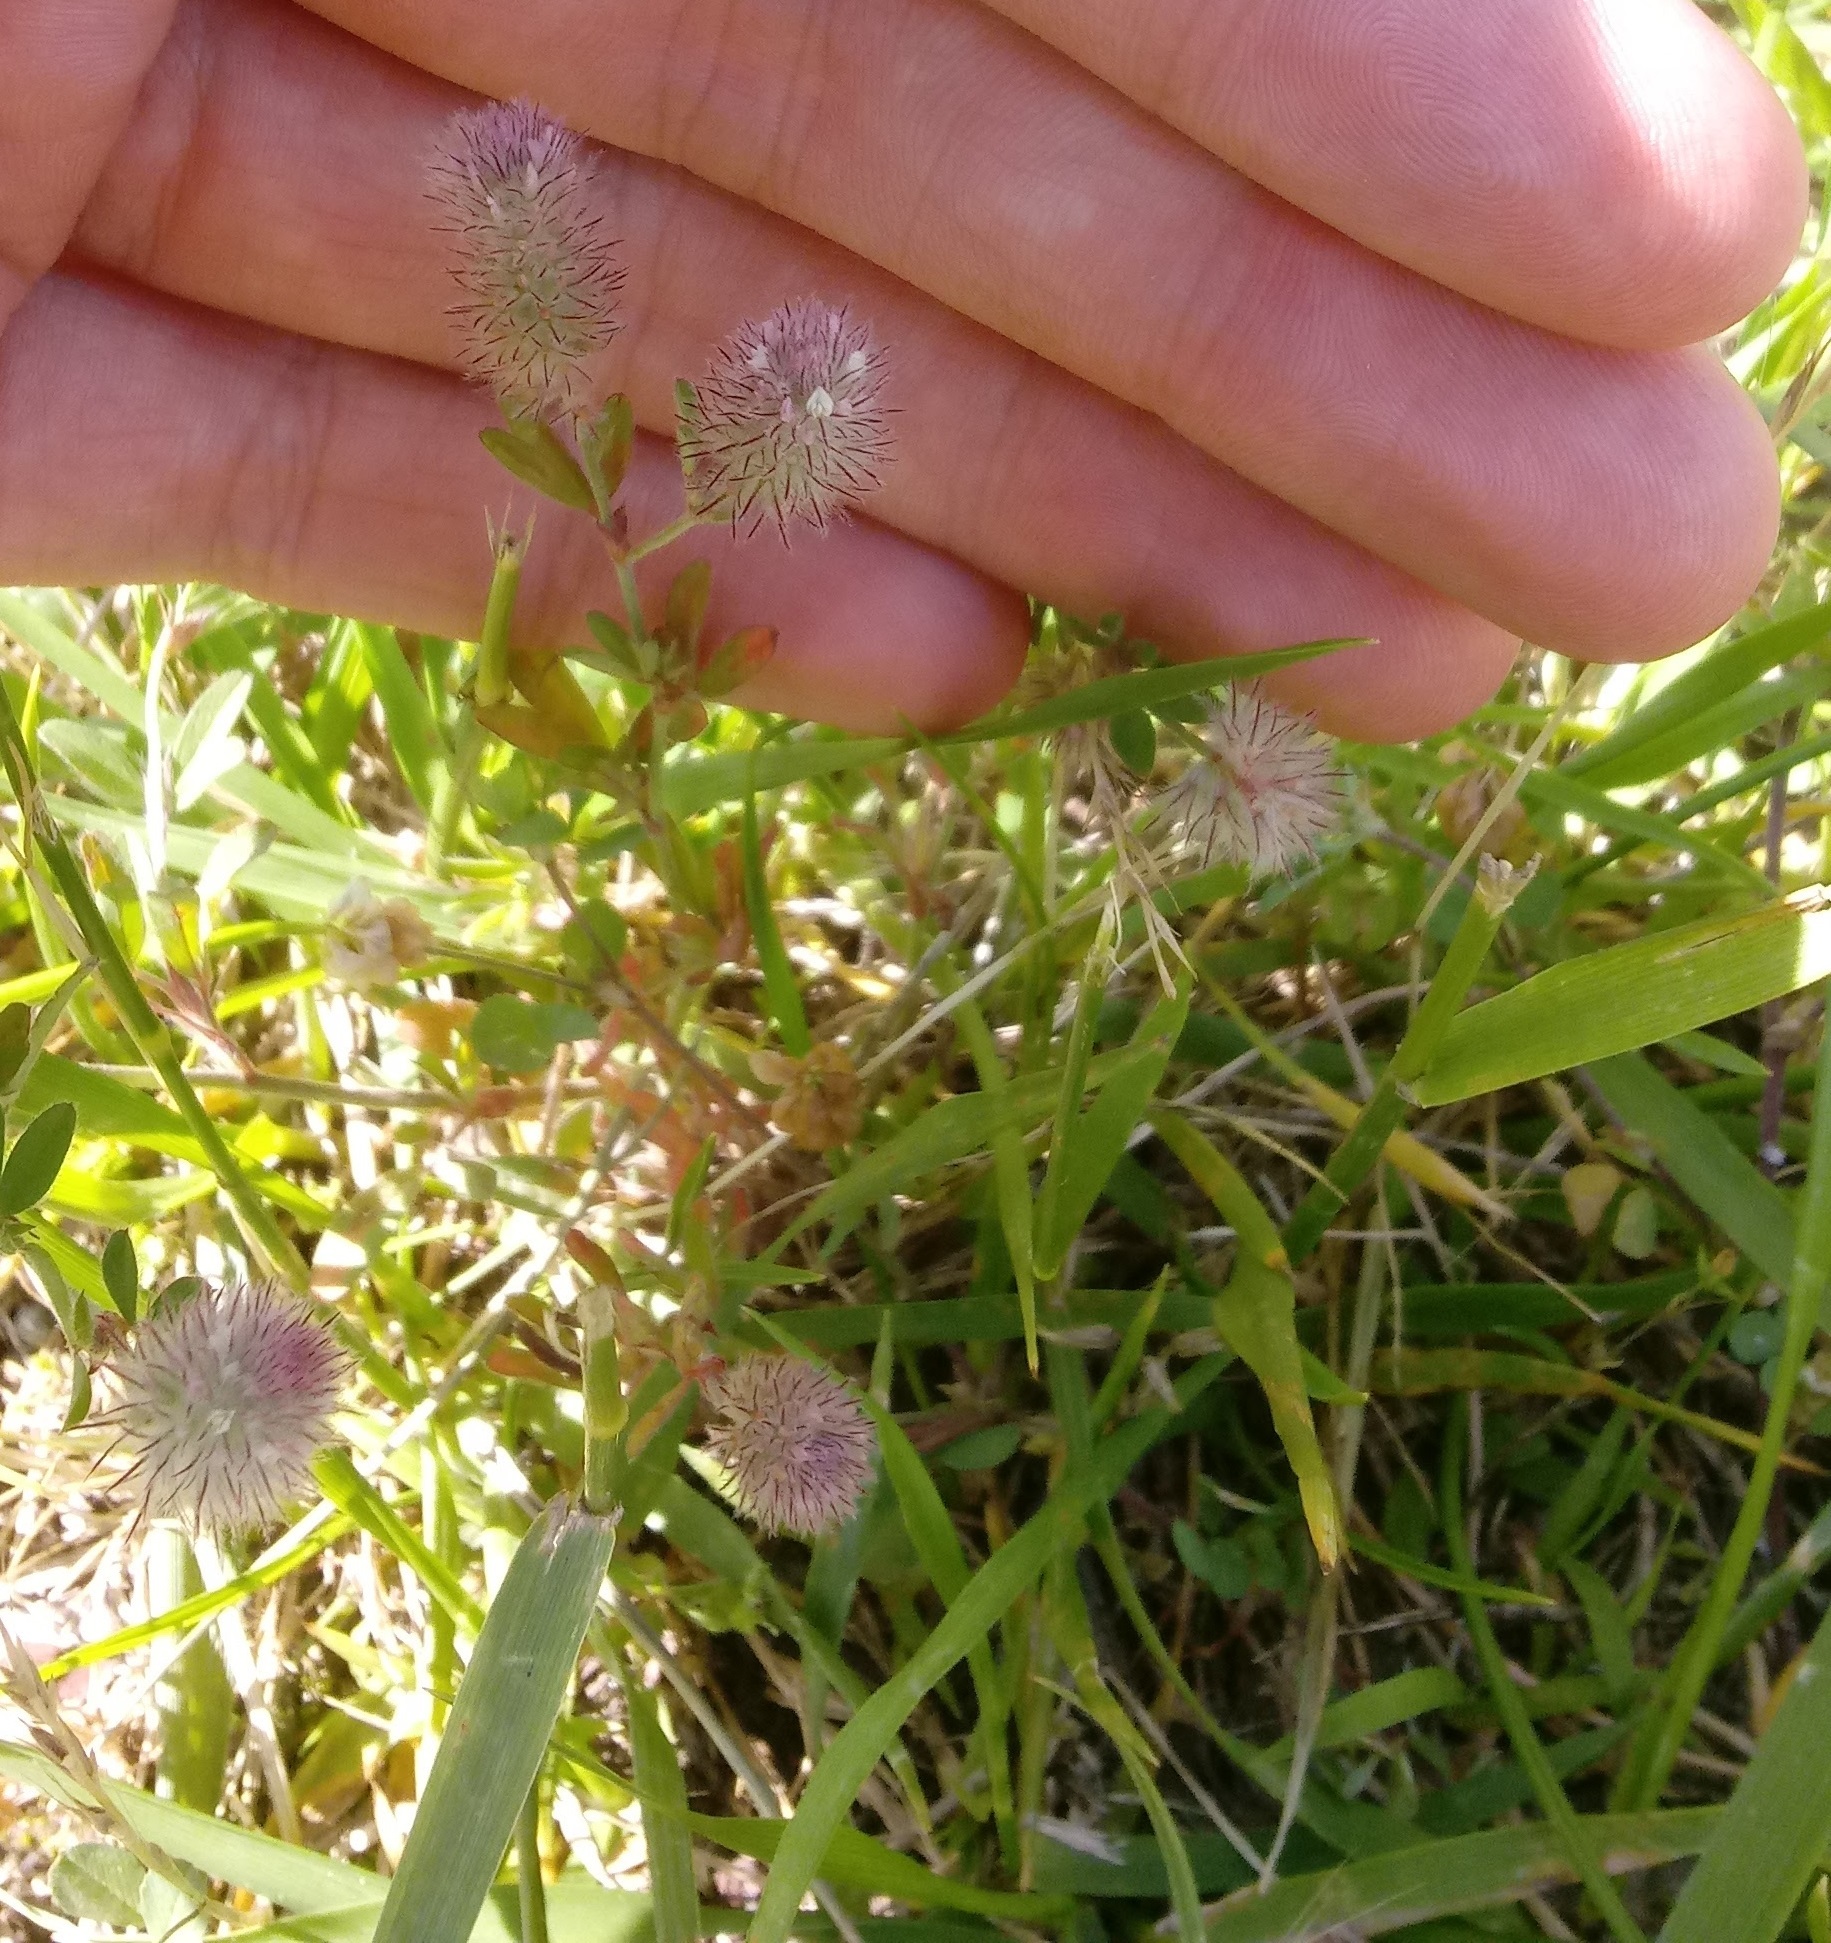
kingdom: Plantae
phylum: Tracheophyta
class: Magnoliopsida
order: Fabales
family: Fabaceae
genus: Trifolium
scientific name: Trifolium arvense
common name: Hare's-foot clover
